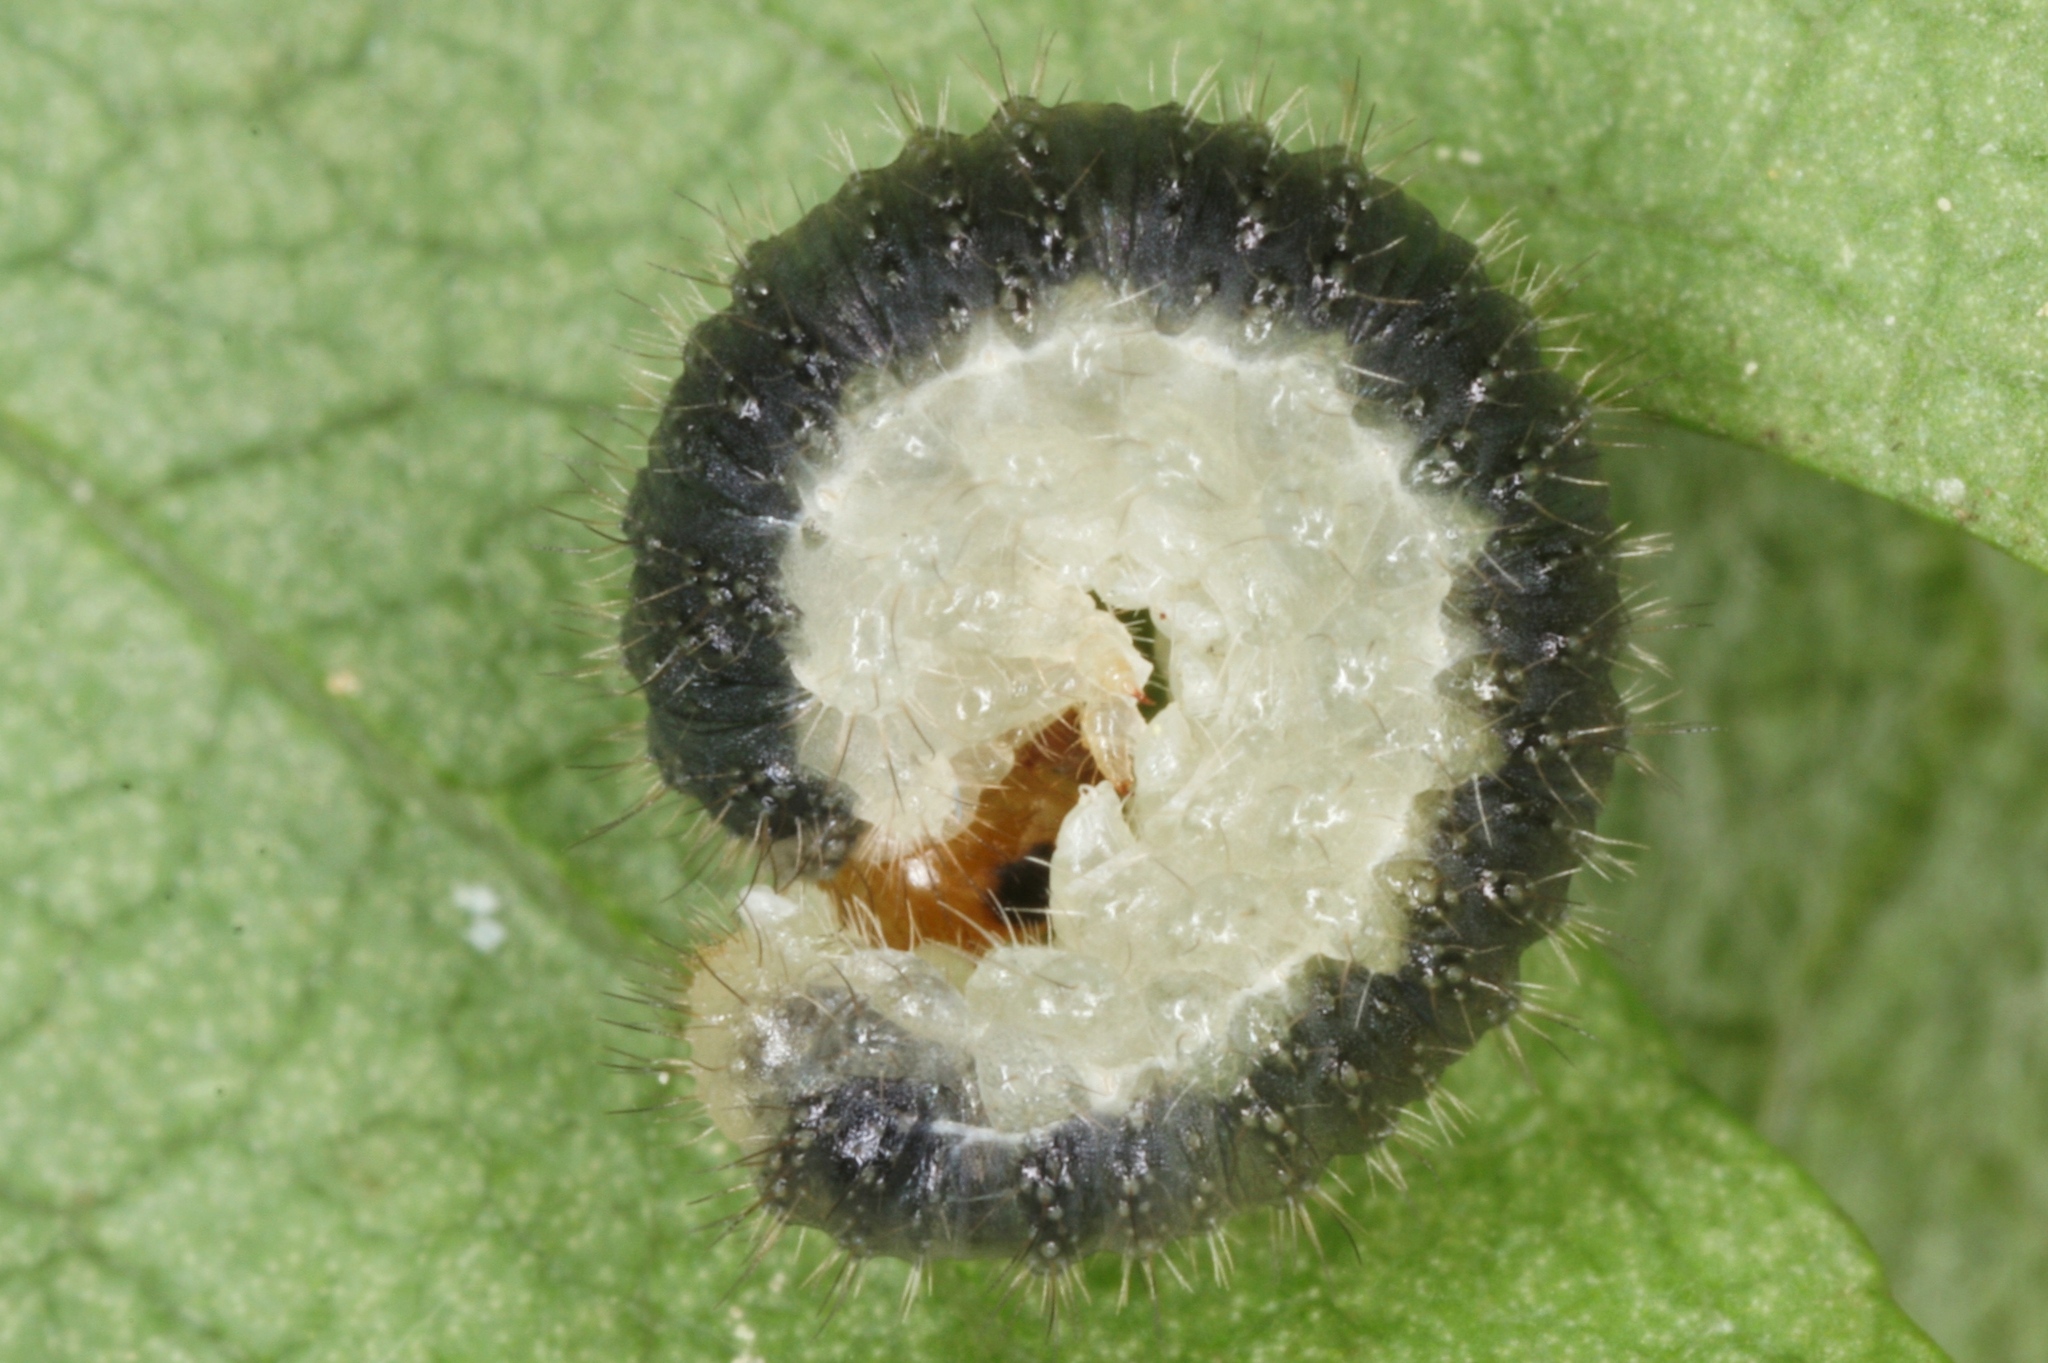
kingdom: Animalia
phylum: Arthropoda
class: Insecta
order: Hymenoptera
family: Tenthredinidae
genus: Cladius
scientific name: Cladius compressicornis
